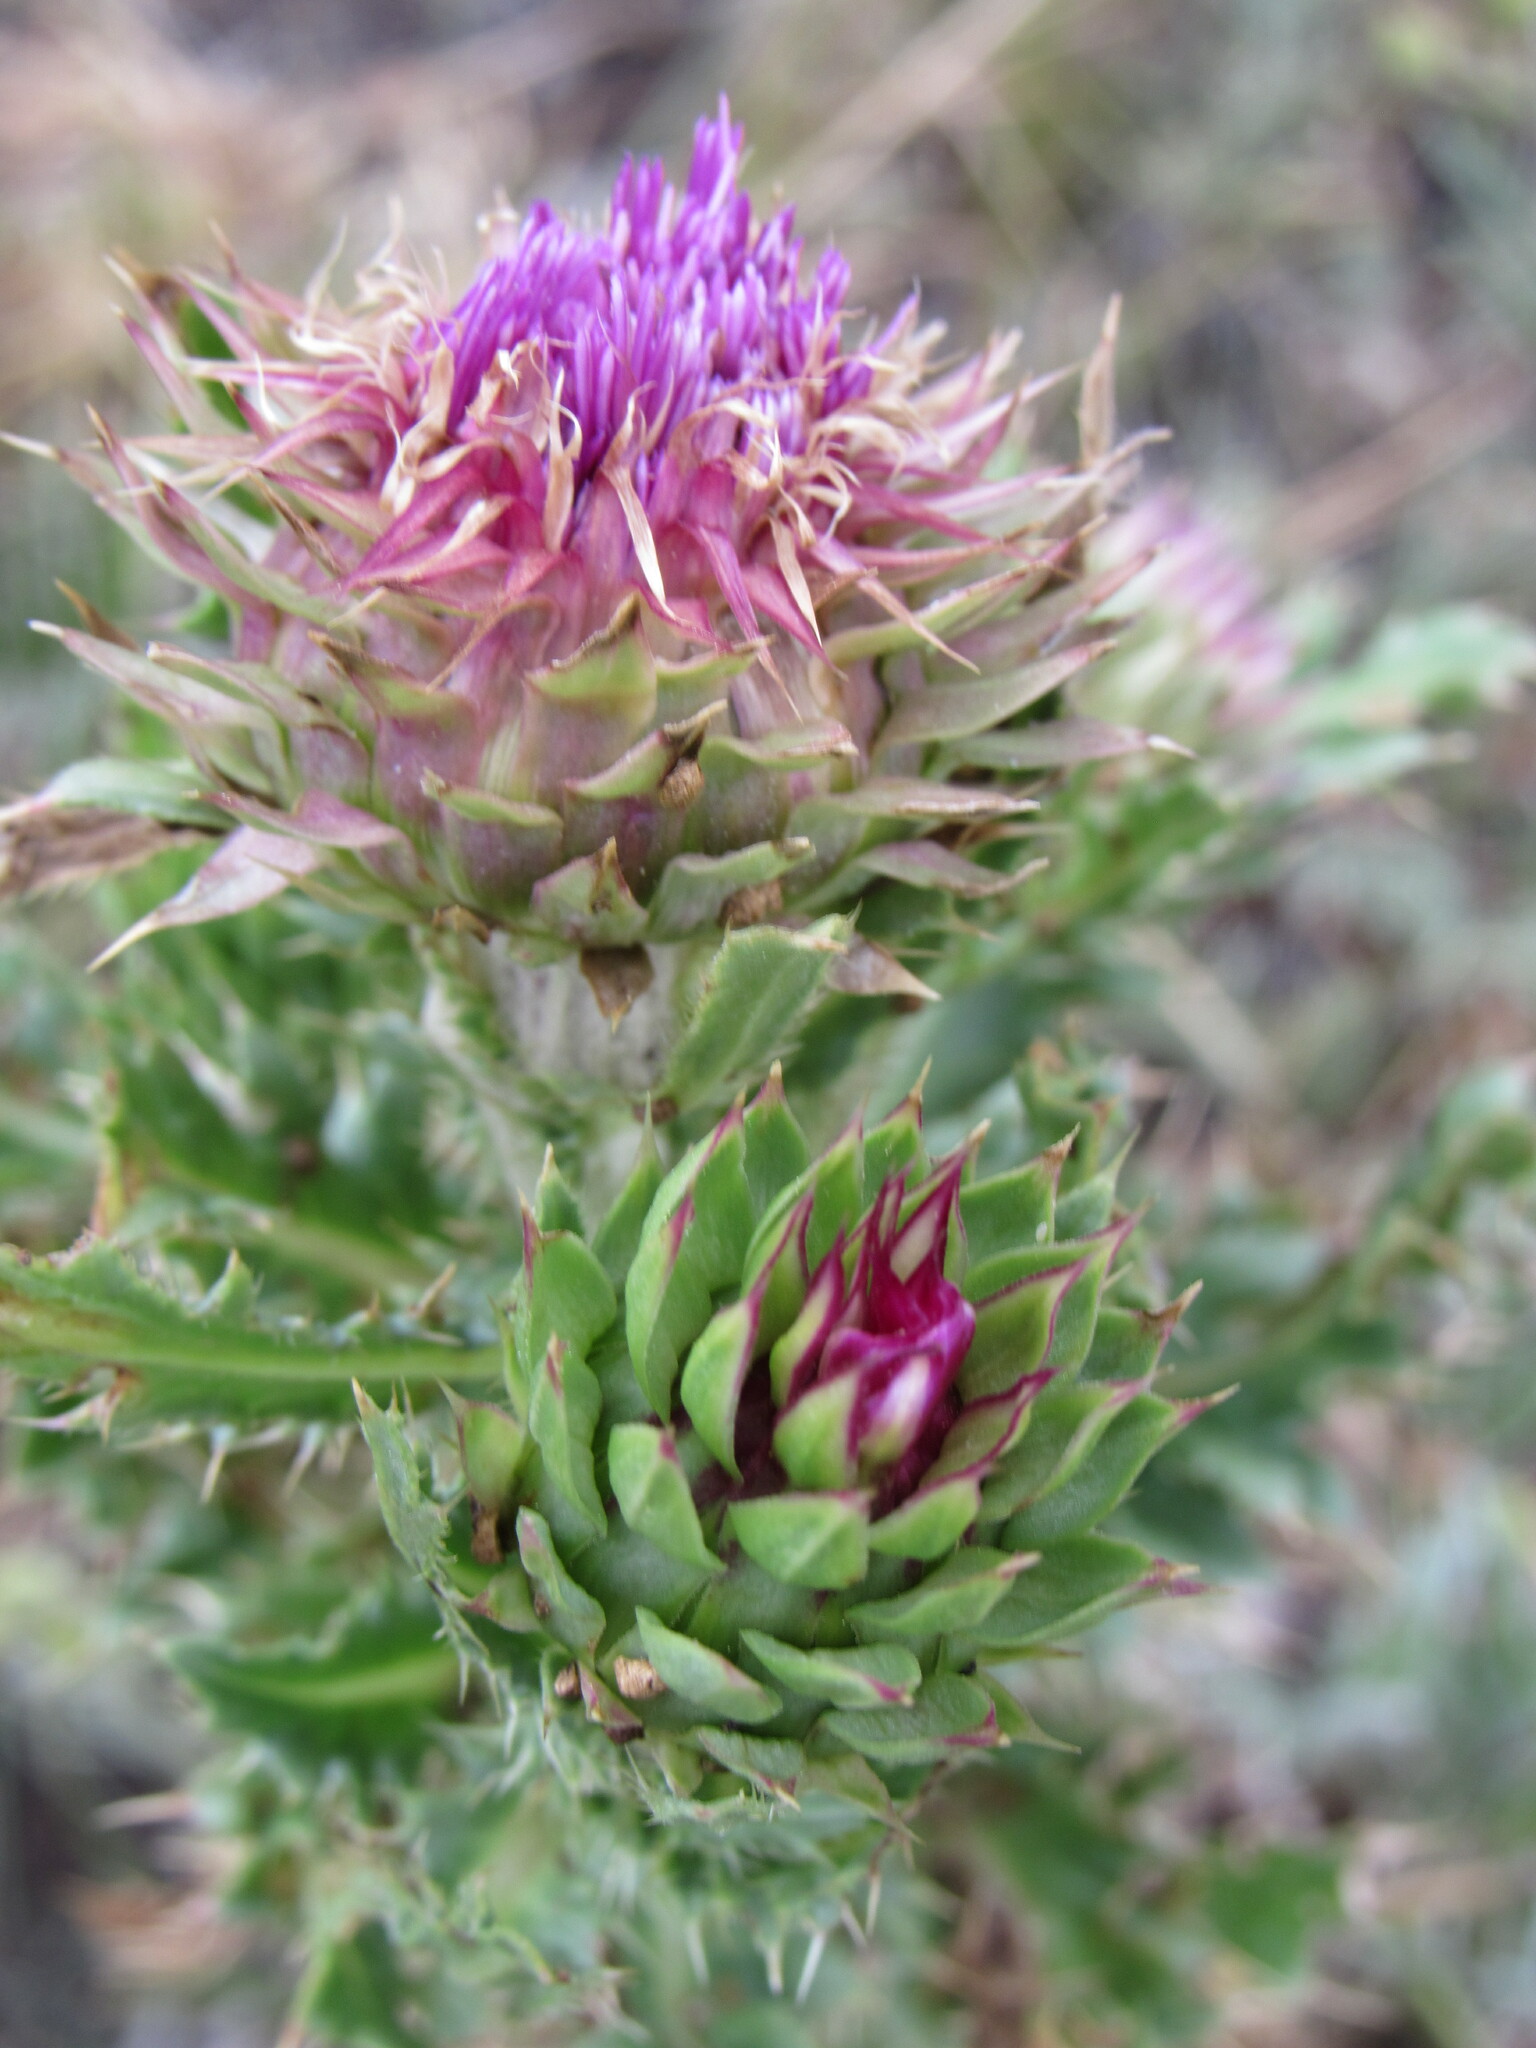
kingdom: Plantae
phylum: Tracheophyta
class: Magnoliopsida
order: Asterales
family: Asteraceae
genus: Carduus
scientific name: Carduus nutans
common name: Musk thistle
